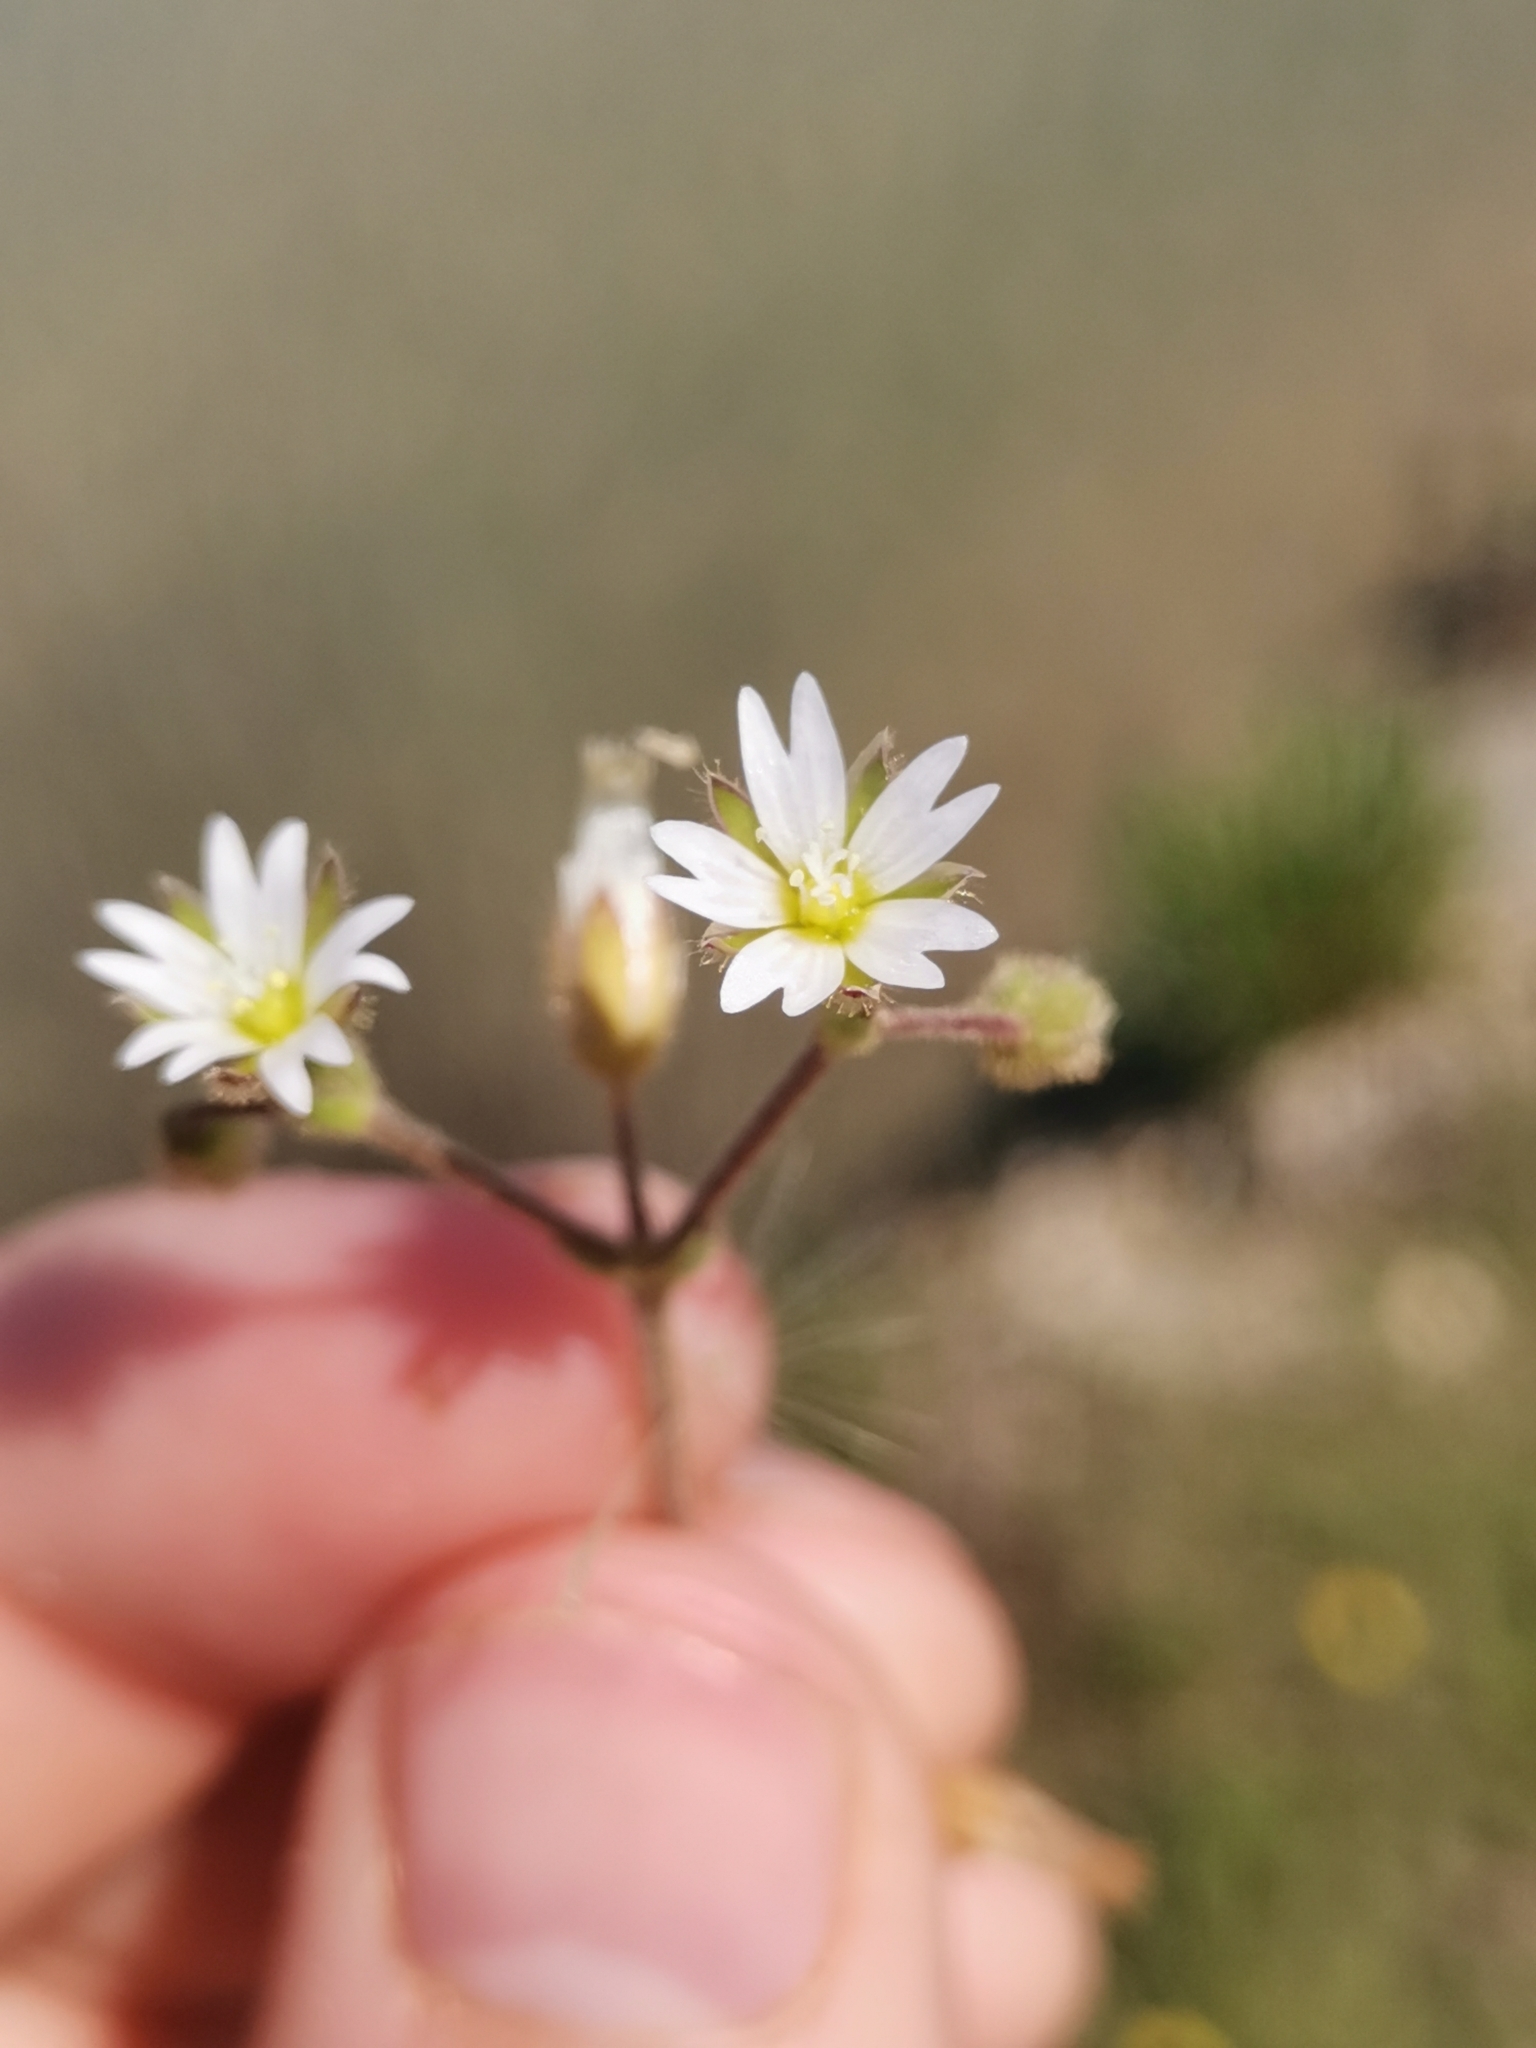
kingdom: Plantae
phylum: Tracheophyta
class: Magnoliopsida
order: Caryophyllales
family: Caryophyllaceae
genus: Cerastium
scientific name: Cerastium pumilum
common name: Dwarf mouse-ear
